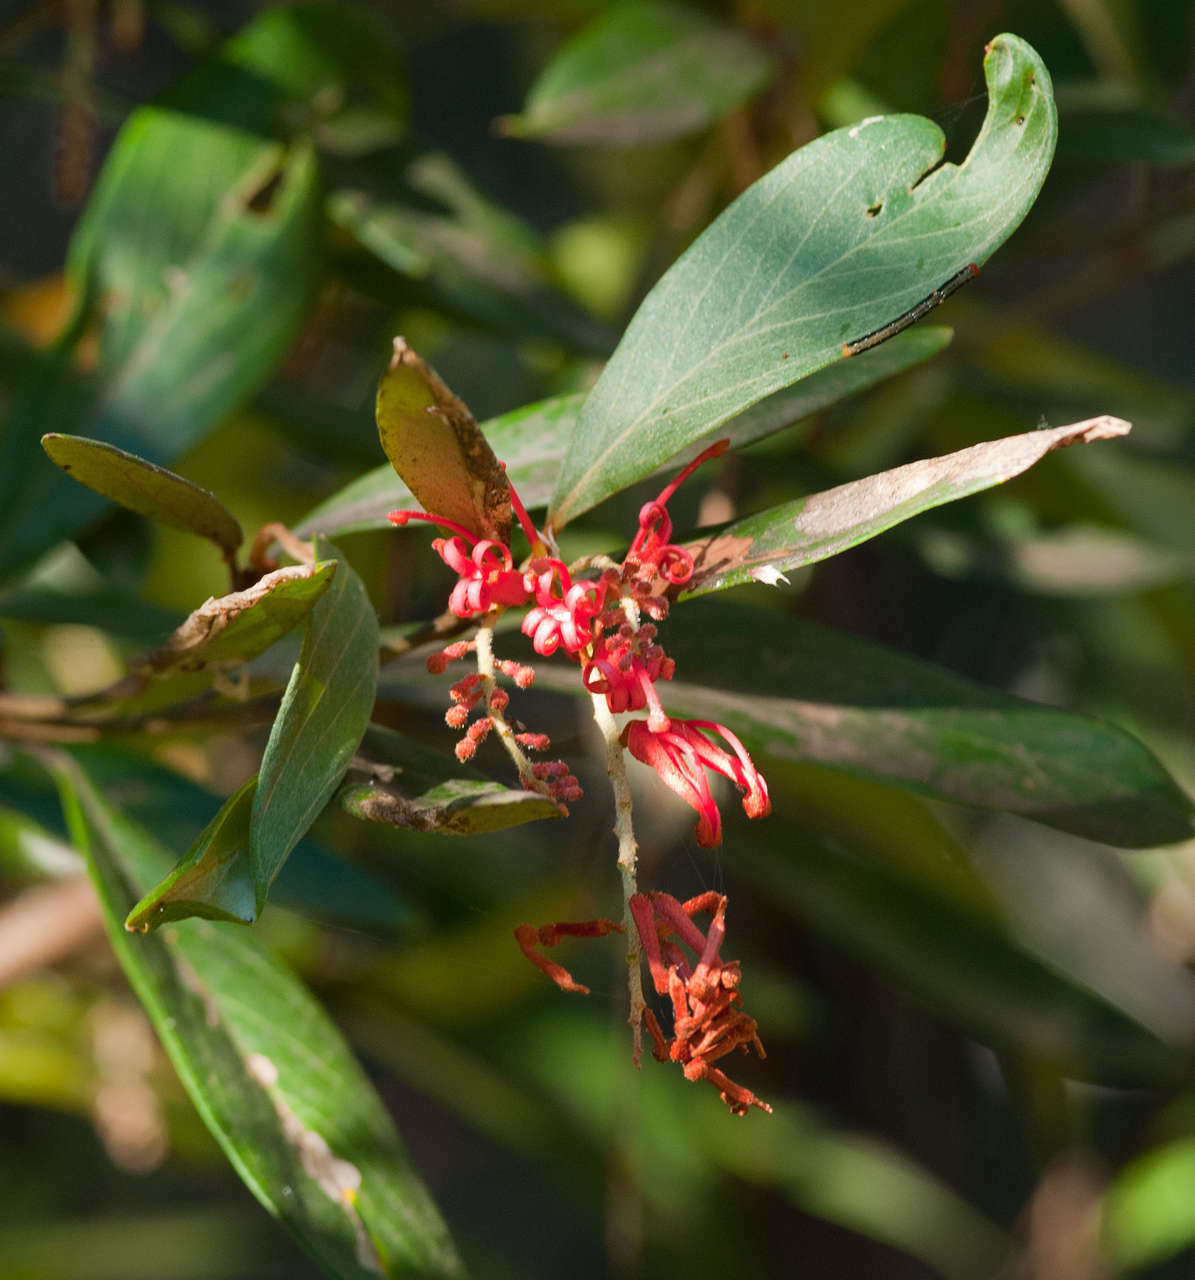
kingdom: Plantae
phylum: Tracheophyta
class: Magnoliopsida
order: Proteales
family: Proteaceae
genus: Grevillea
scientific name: Grevillea victoriae
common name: Royal grevillea
